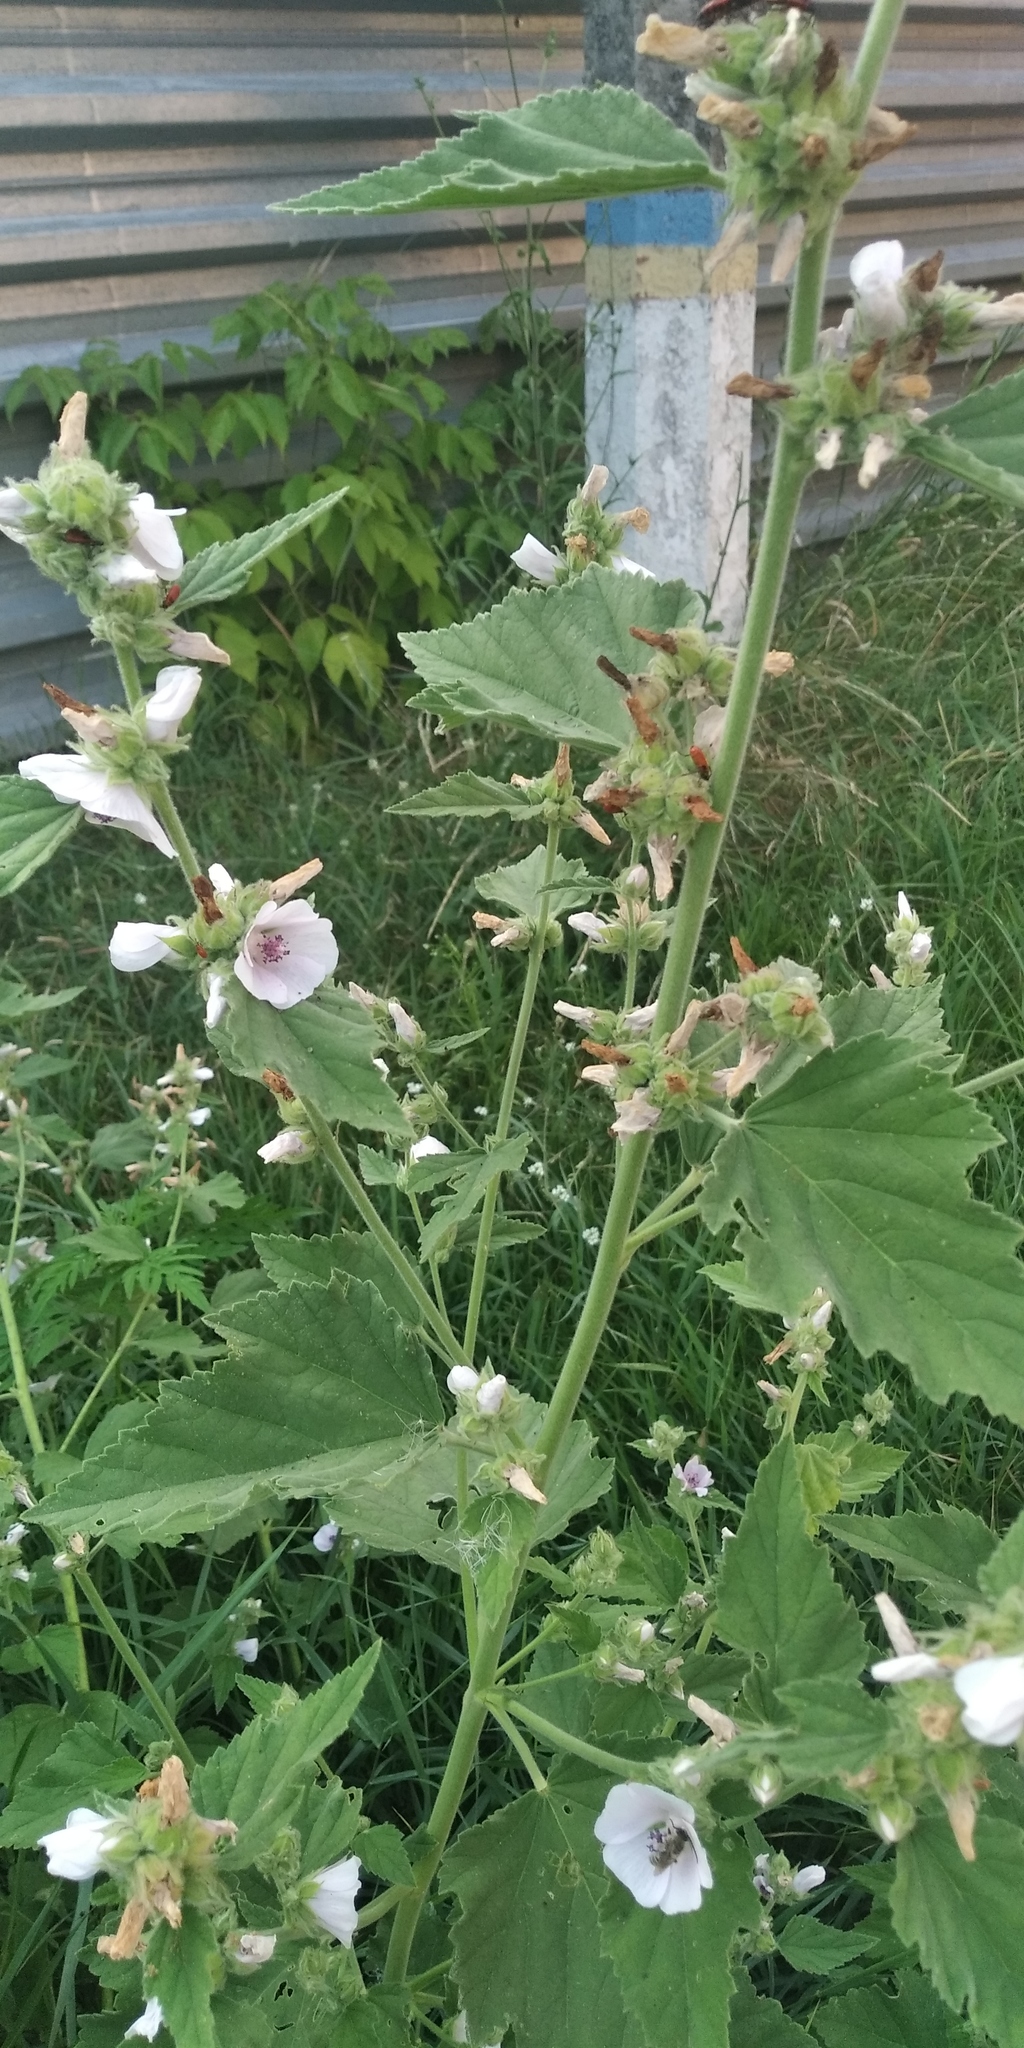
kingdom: Plantae
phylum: Tracheophyta
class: Magnoliopsida
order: Malvales
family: Malvaceae
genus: Althaea
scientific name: Althaea officinalis
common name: Marsh-mallow
